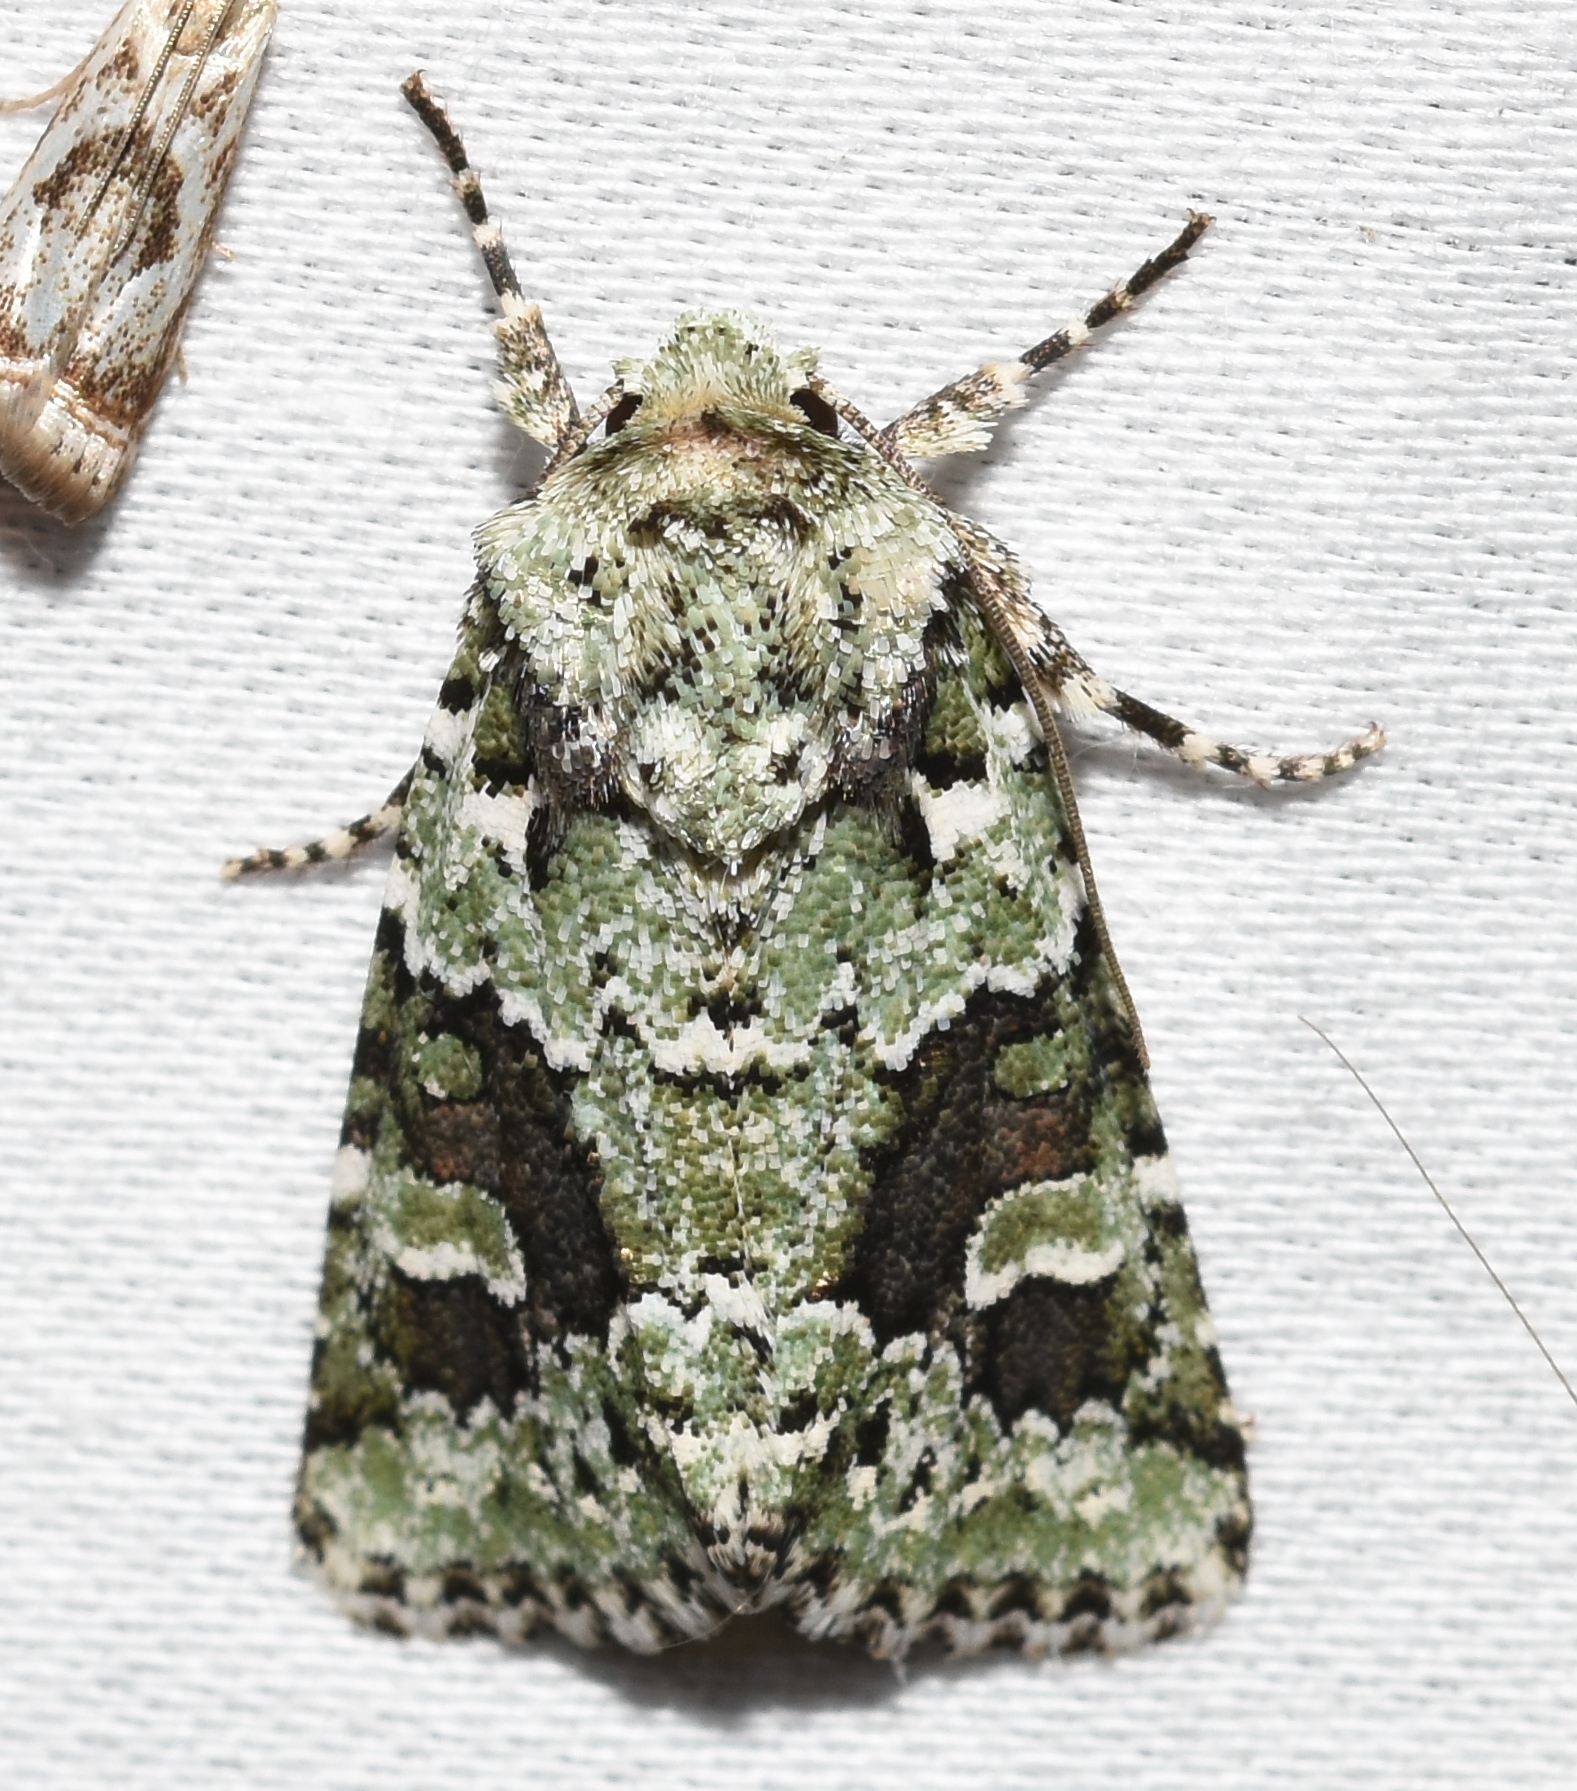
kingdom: Animalia
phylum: Arthropoda
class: Insecta
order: Lepidoptera
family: Noctuidae
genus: Lacinipolia
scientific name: Lacinipolia laudabilis
